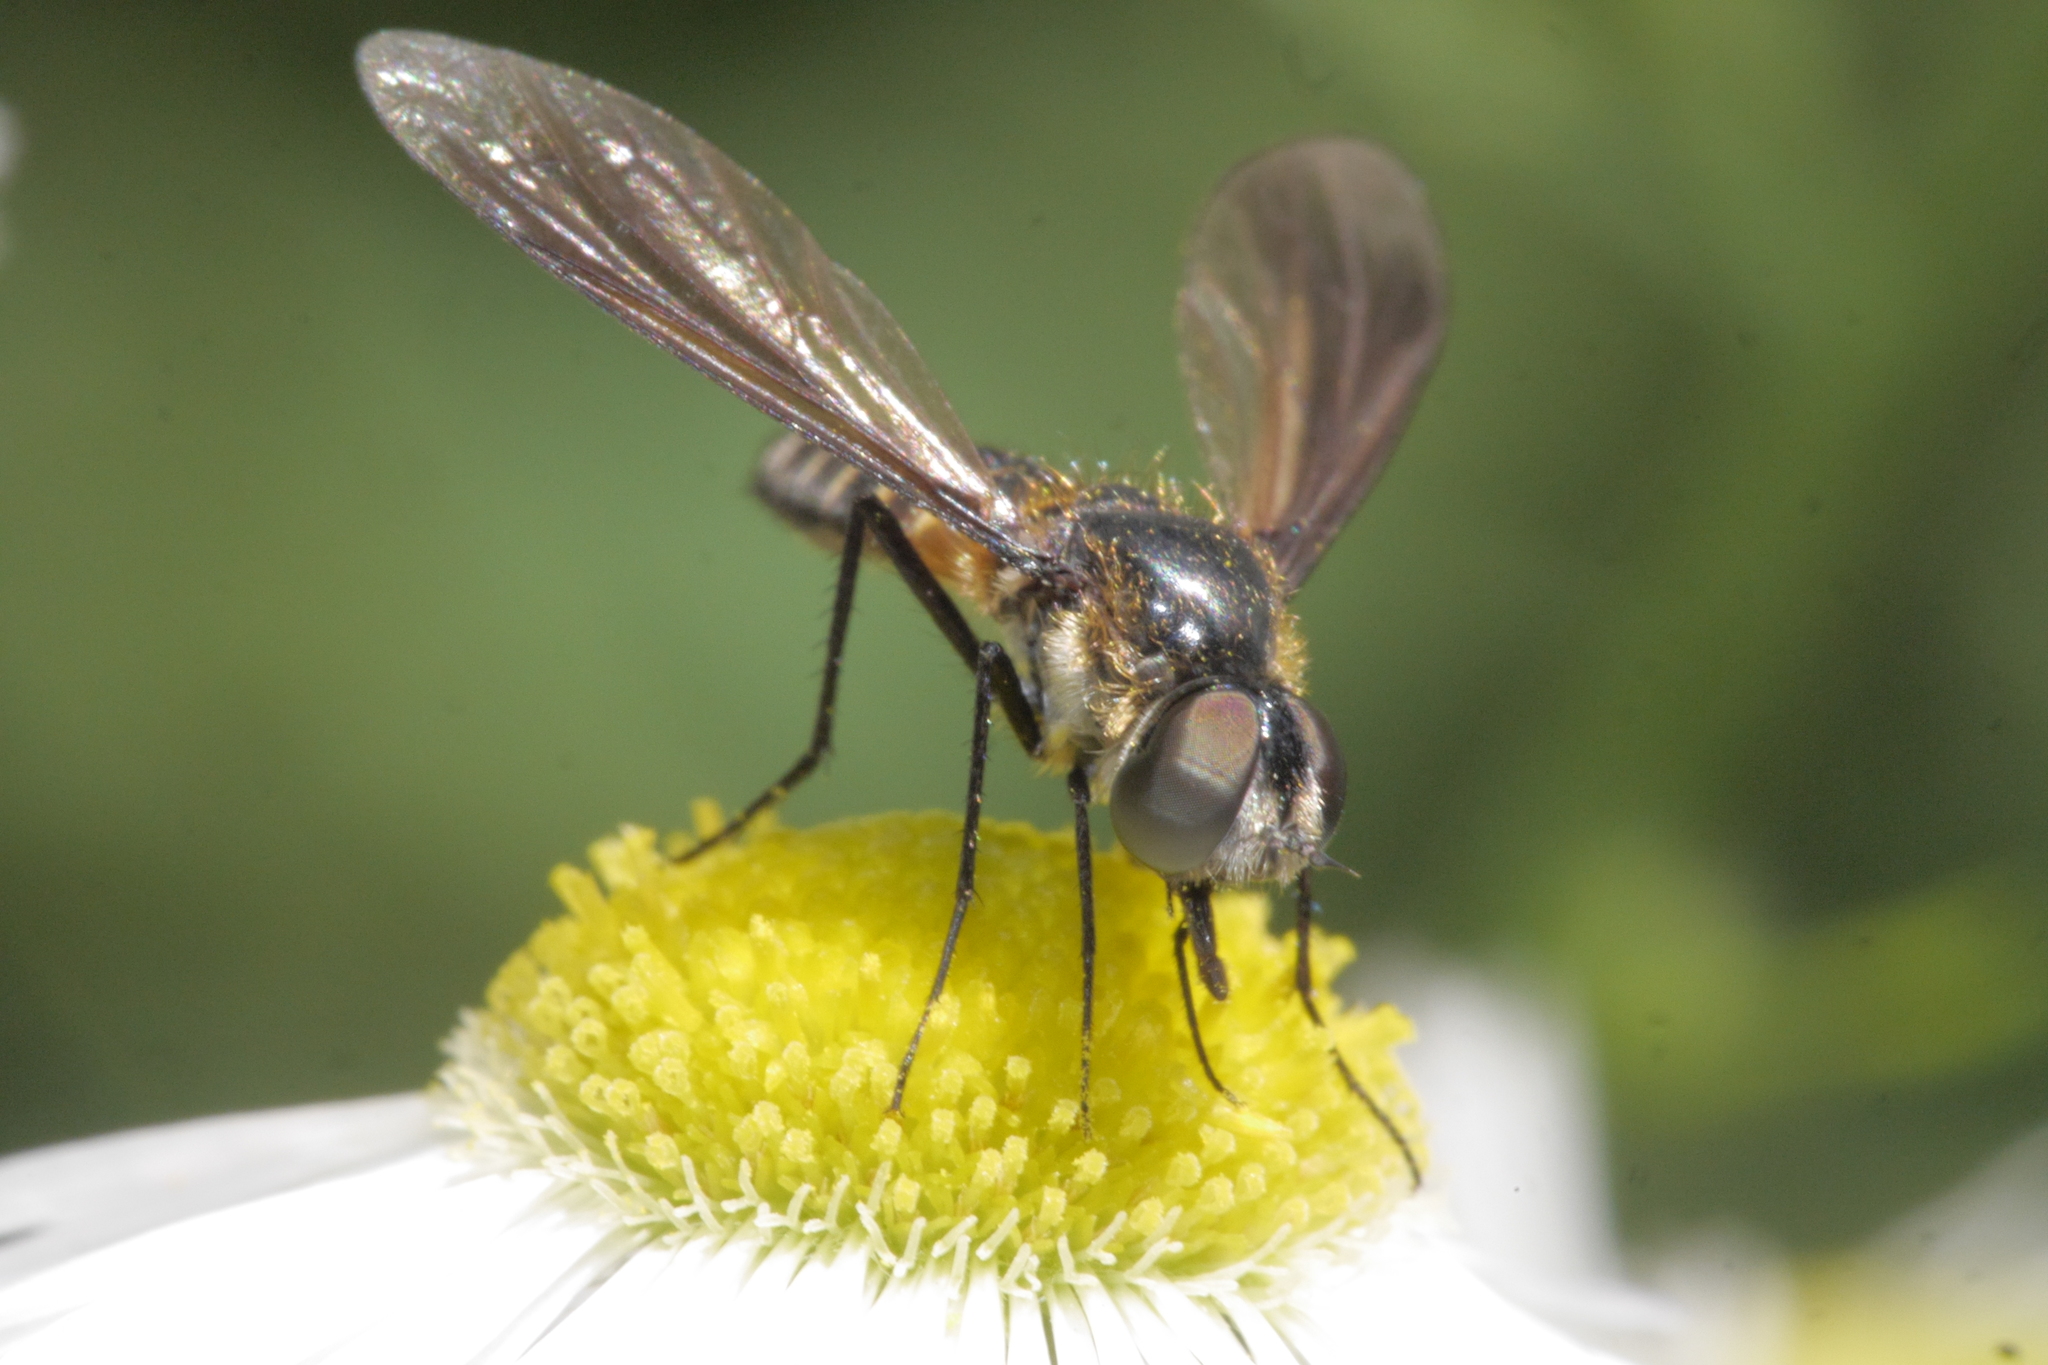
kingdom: Animalia
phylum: Arthropoda
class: Insecta
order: Diptera
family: Bombyliidae
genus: Lomatia
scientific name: Lomatia lateralis
